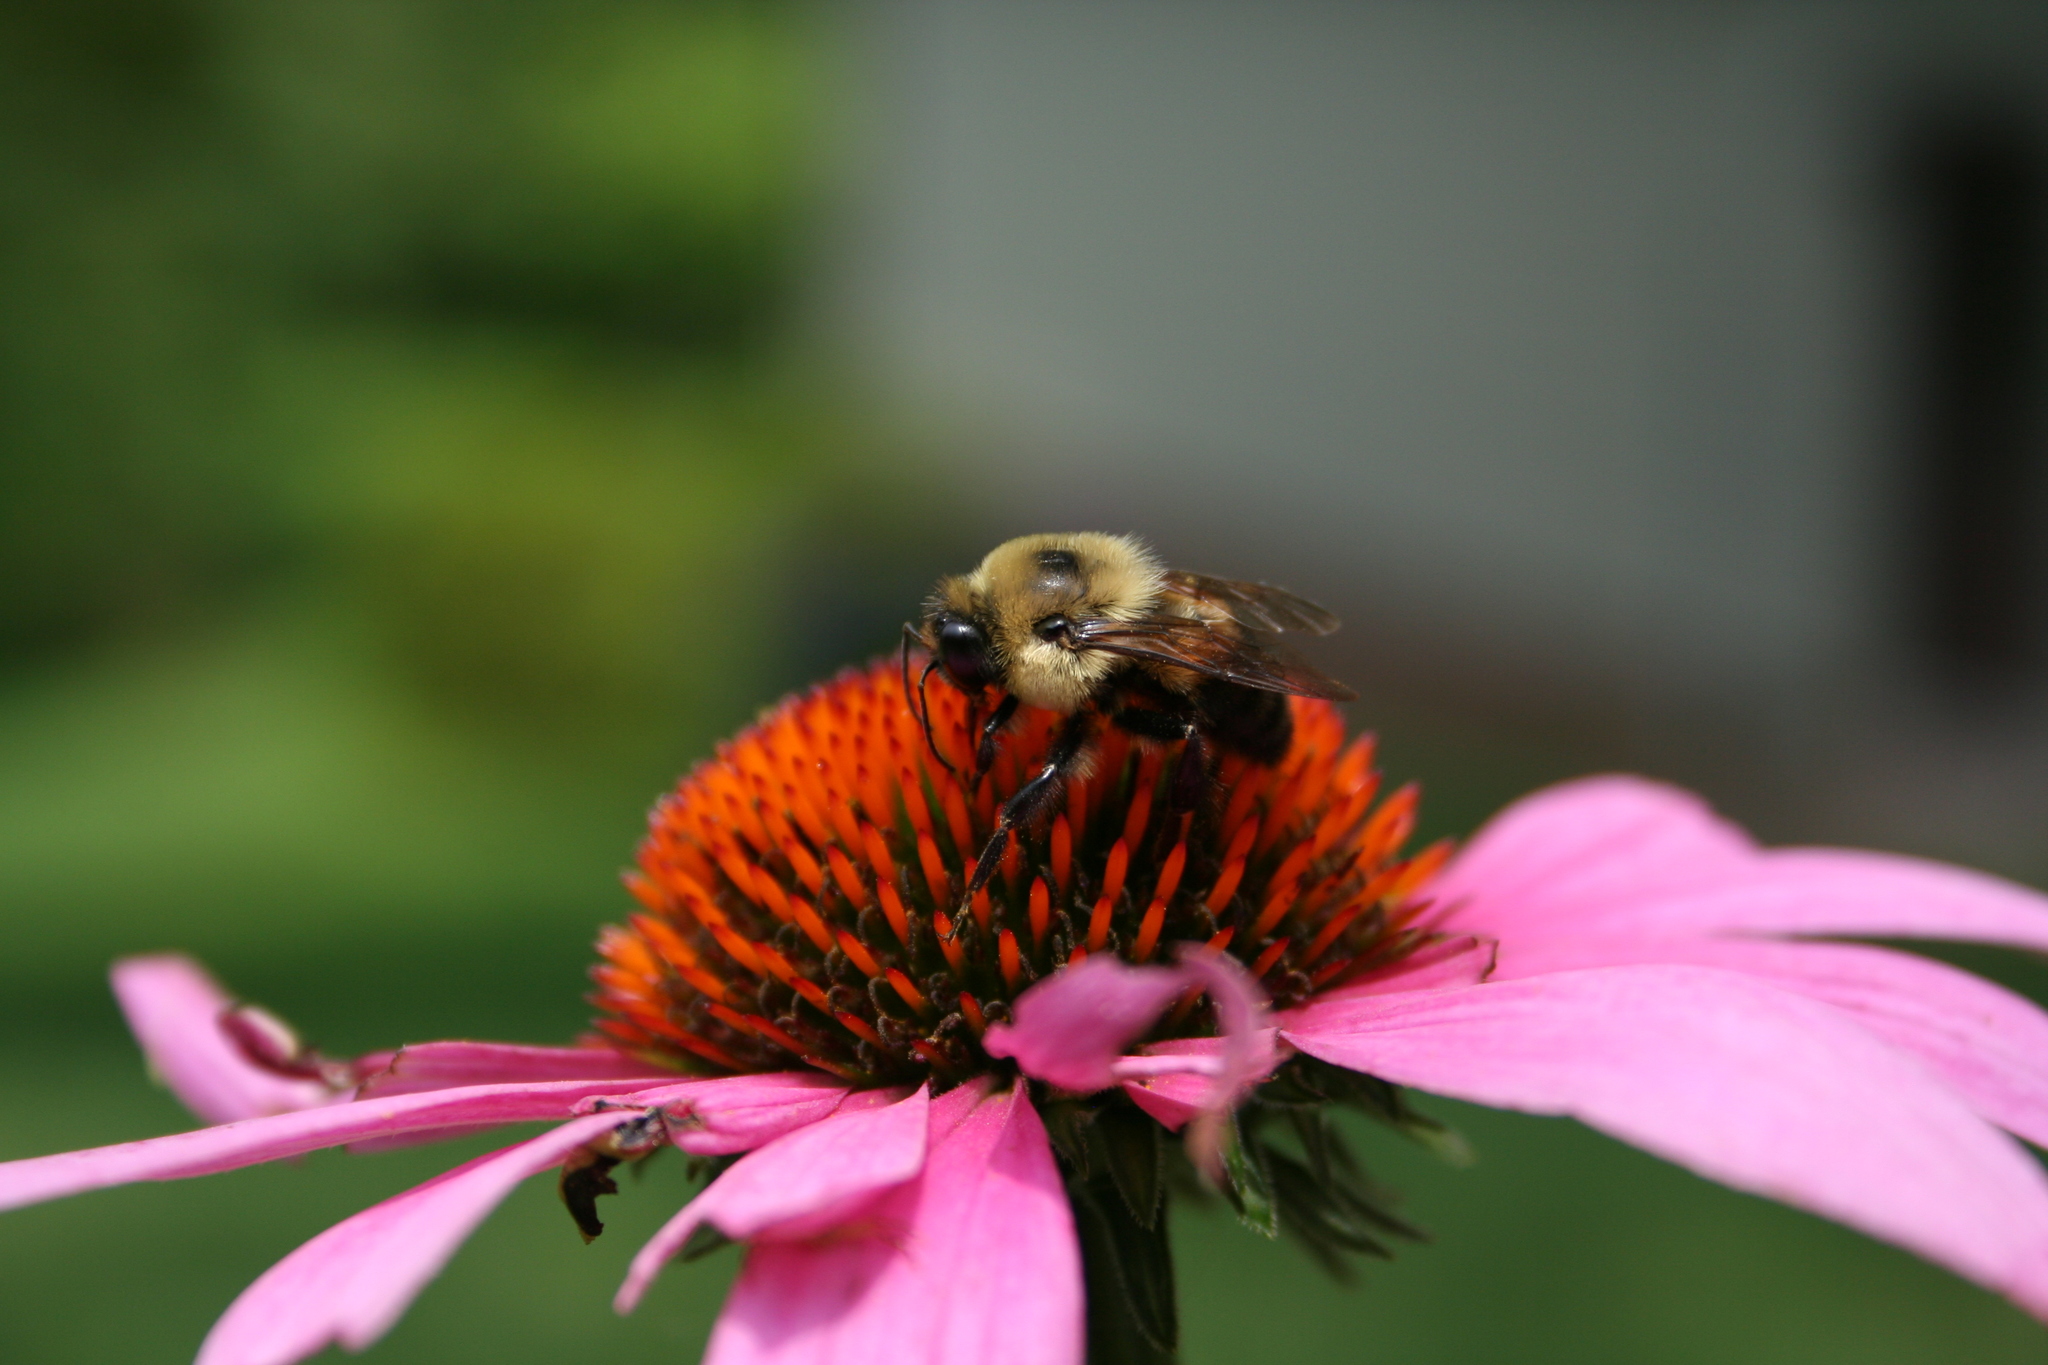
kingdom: Animalia
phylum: Arthropoda
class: Insecta
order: Hymenoptera
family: Apidae
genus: Bombus
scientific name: Bombus griseocollis
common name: Brown-belted bumble bee
